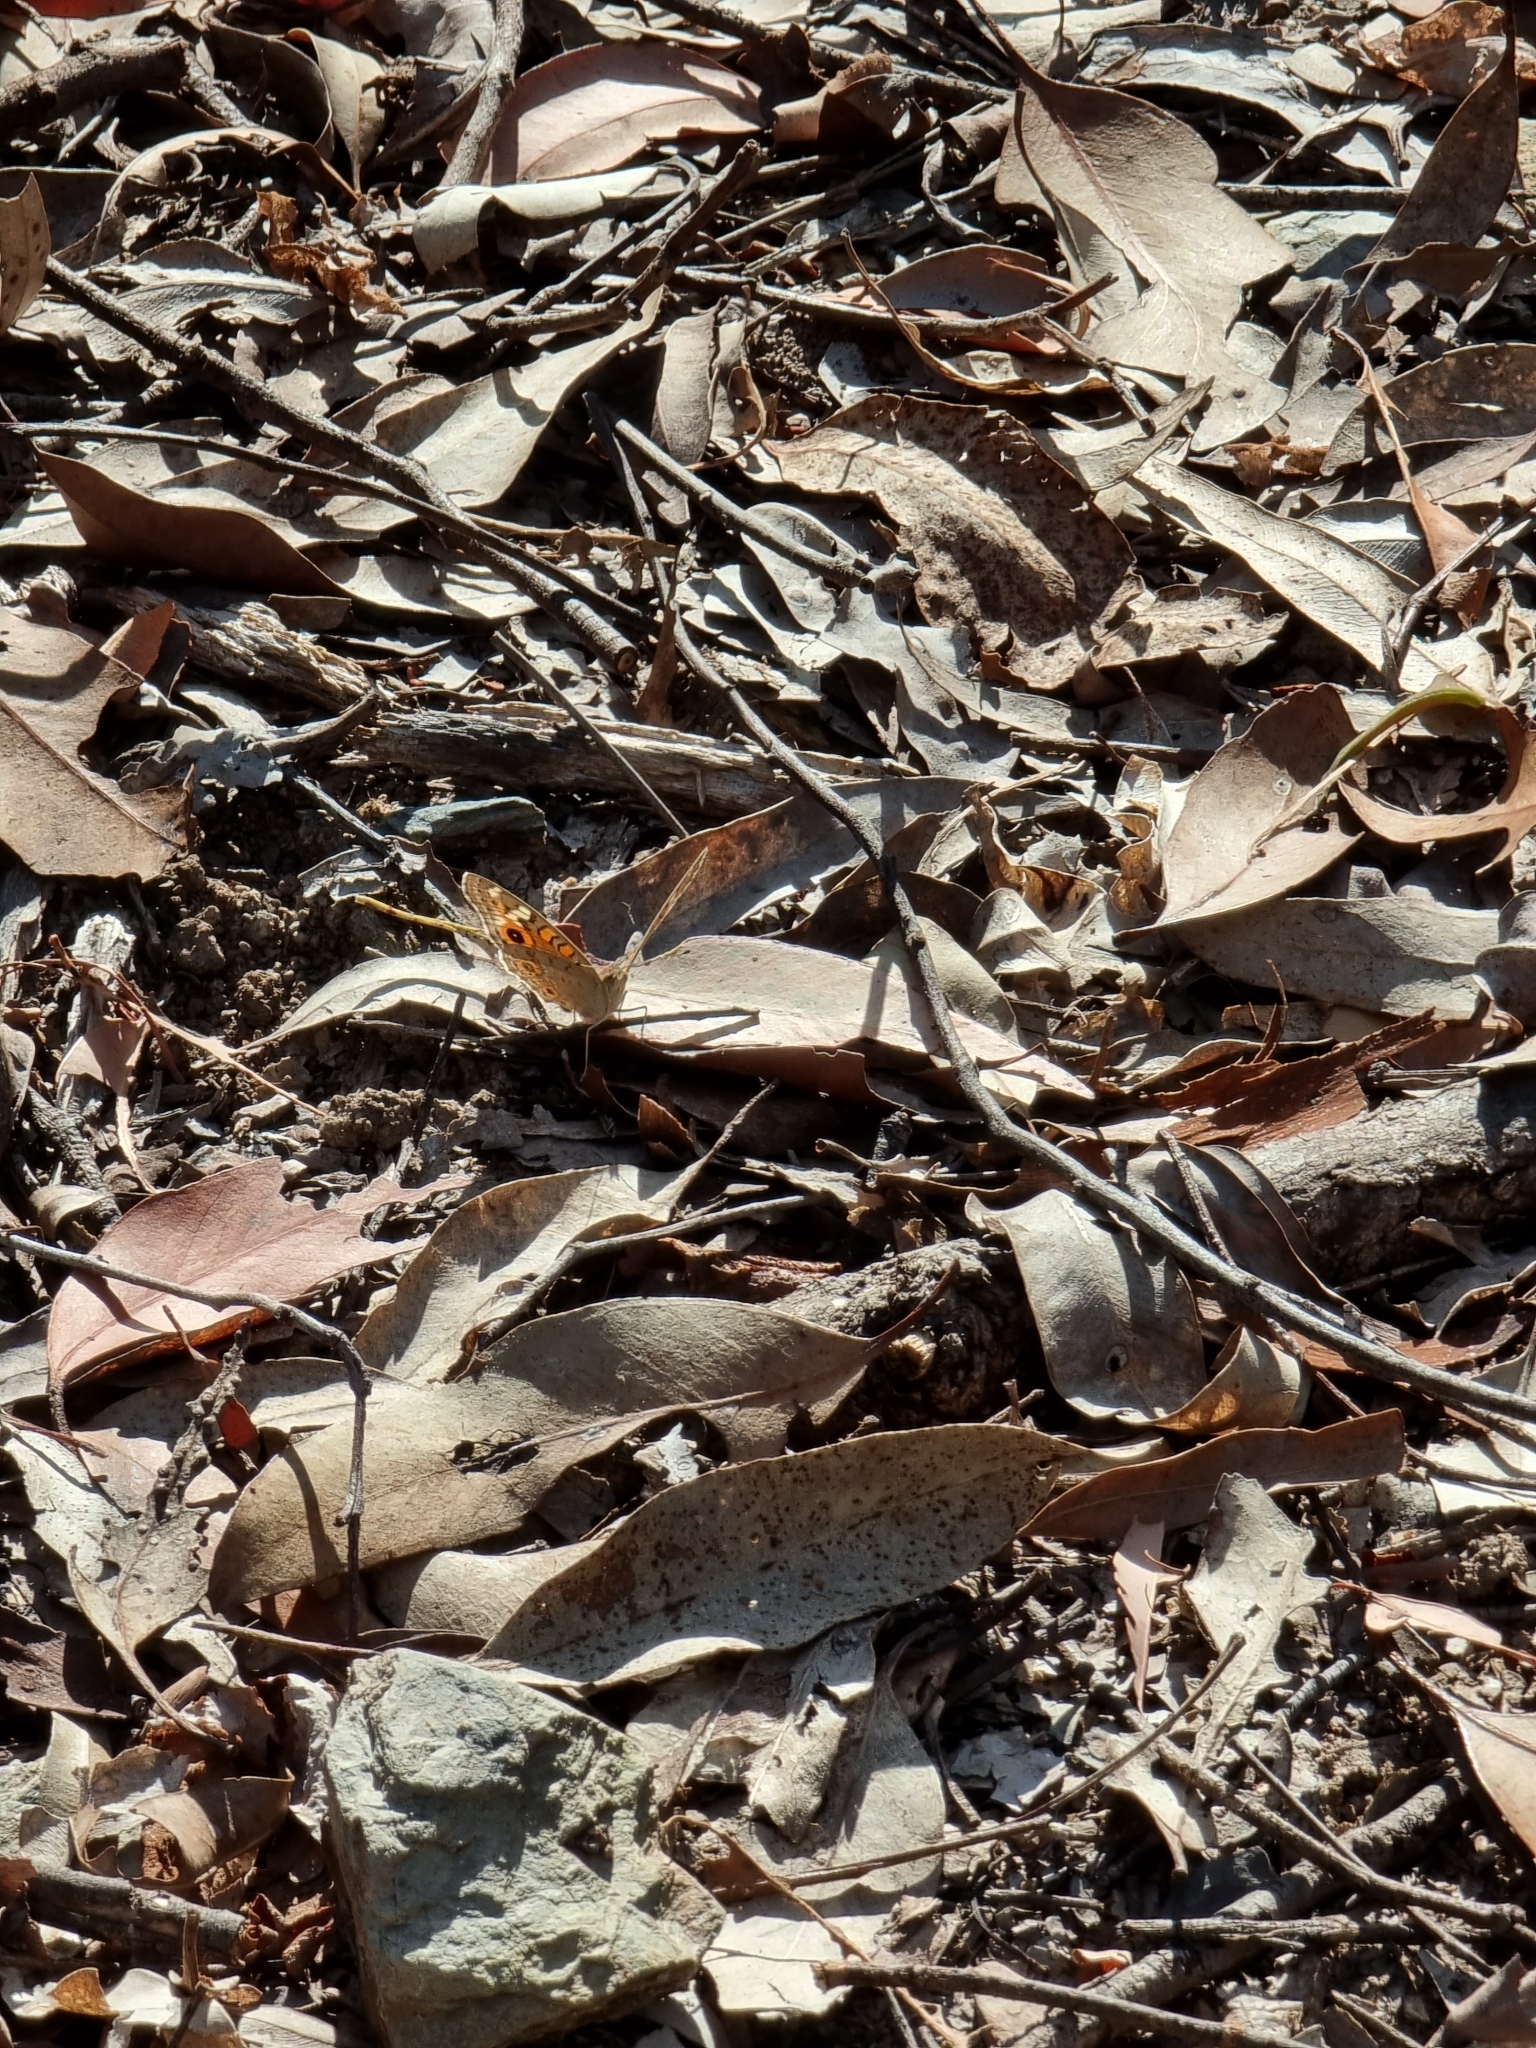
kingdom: Animalia
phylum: Arthropoda
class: Insecta
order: Lepidoptera
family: Nymphalidae
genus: Junonia
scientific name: Junonia villida
